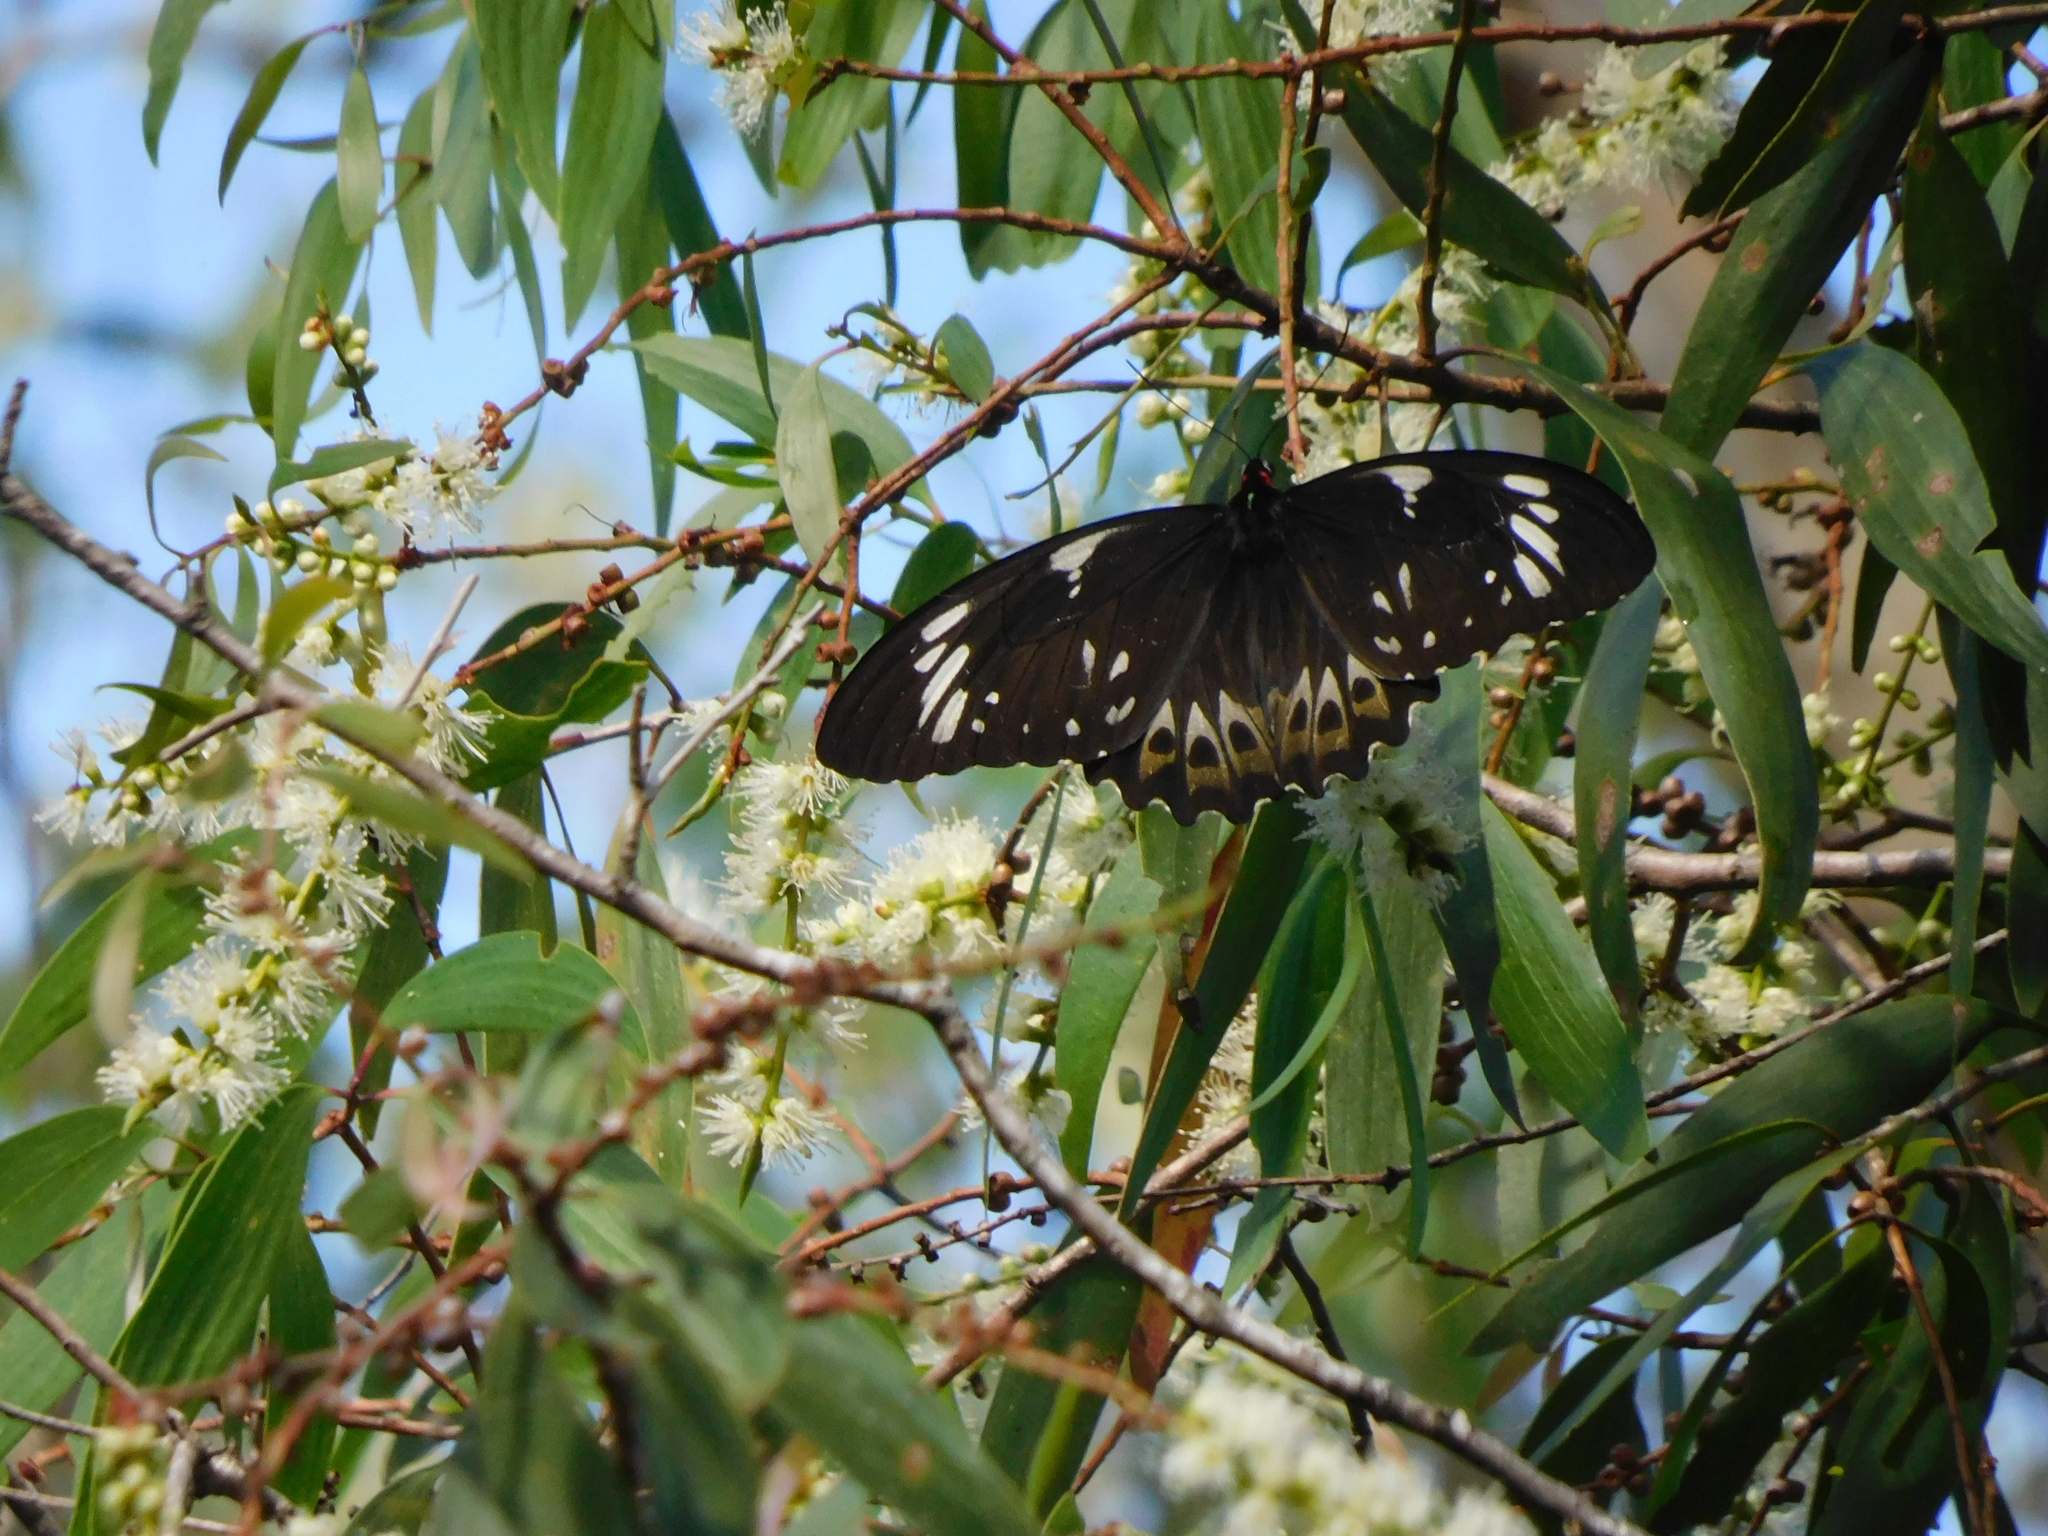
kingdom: Animalia
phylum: Arthropoda
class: Insecta
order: Lepidoptera
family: Papilionidae
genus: Ornithoptera
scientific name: Ornithoptera euphorion
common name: Cairns birdwing
